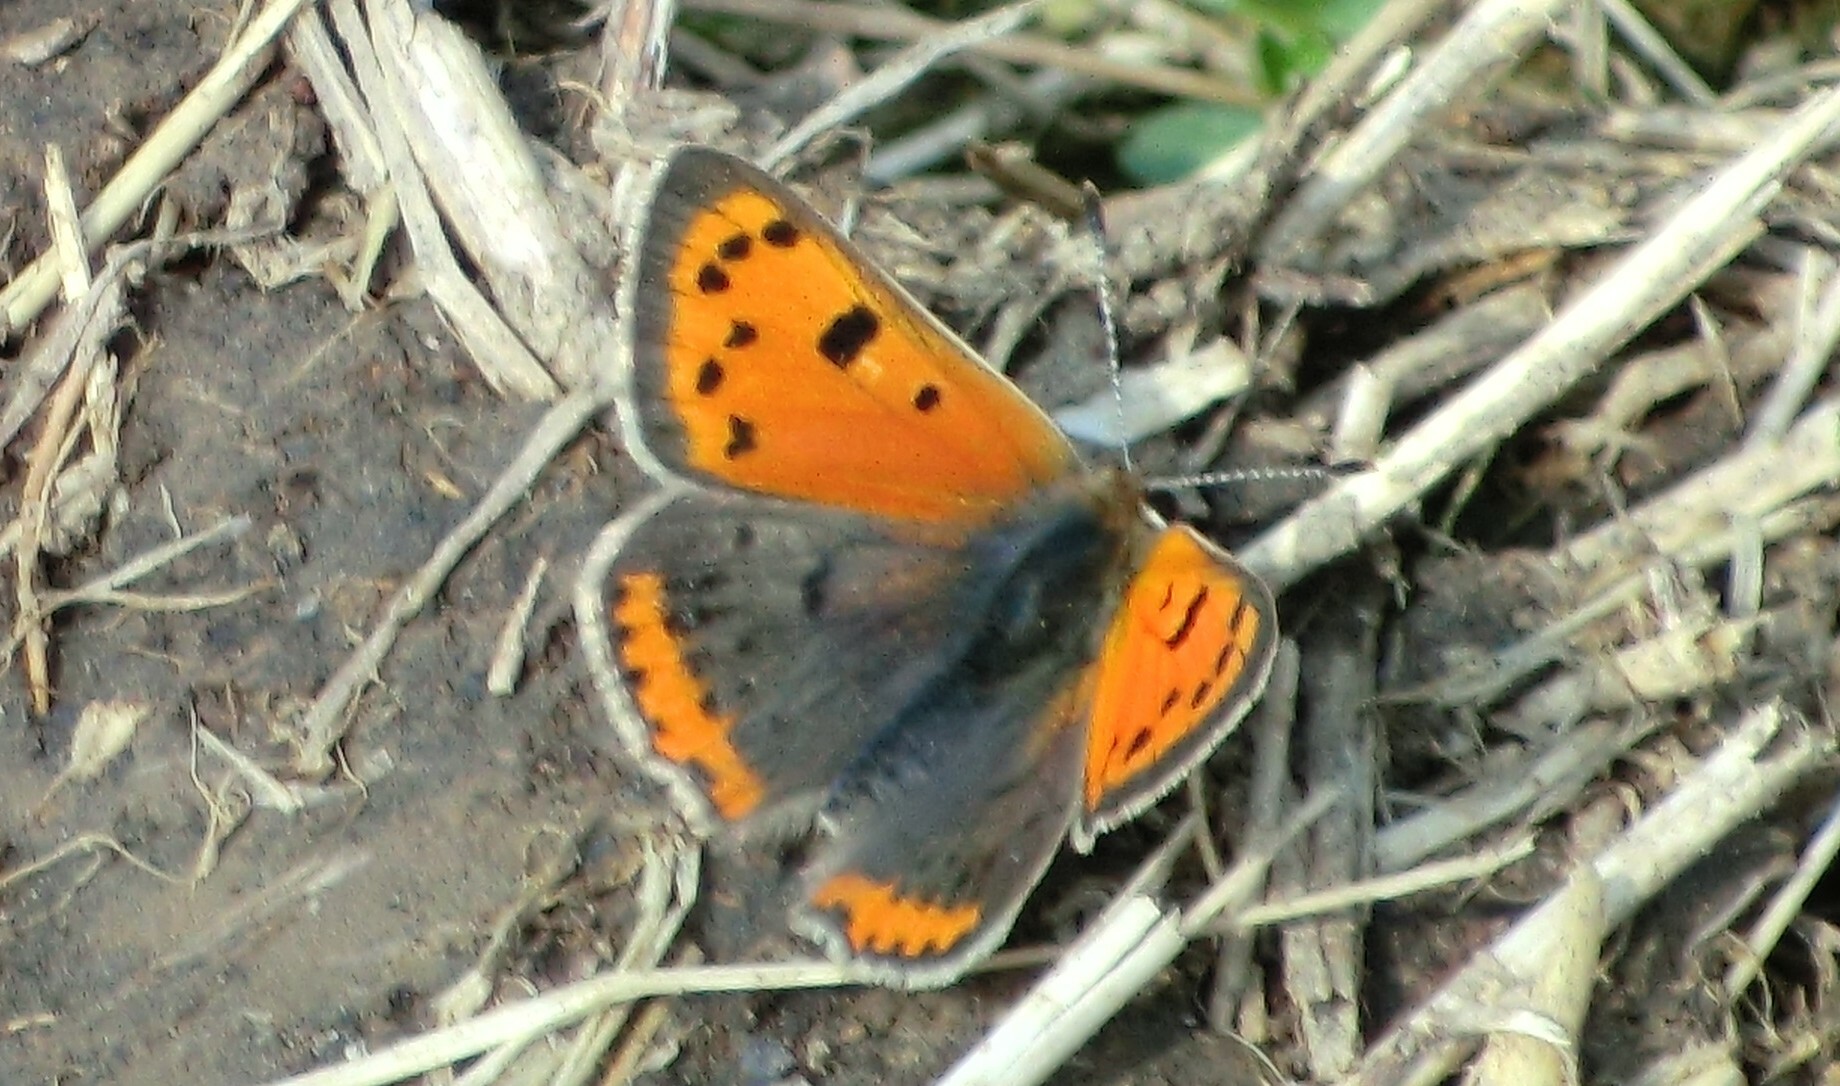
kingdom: Animalia
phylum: Arthropoda
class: Insecta
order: Lepidoptera
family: Lycaenidae
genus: Lycaena
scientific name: Lycaena phlaeas
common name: Small copper
